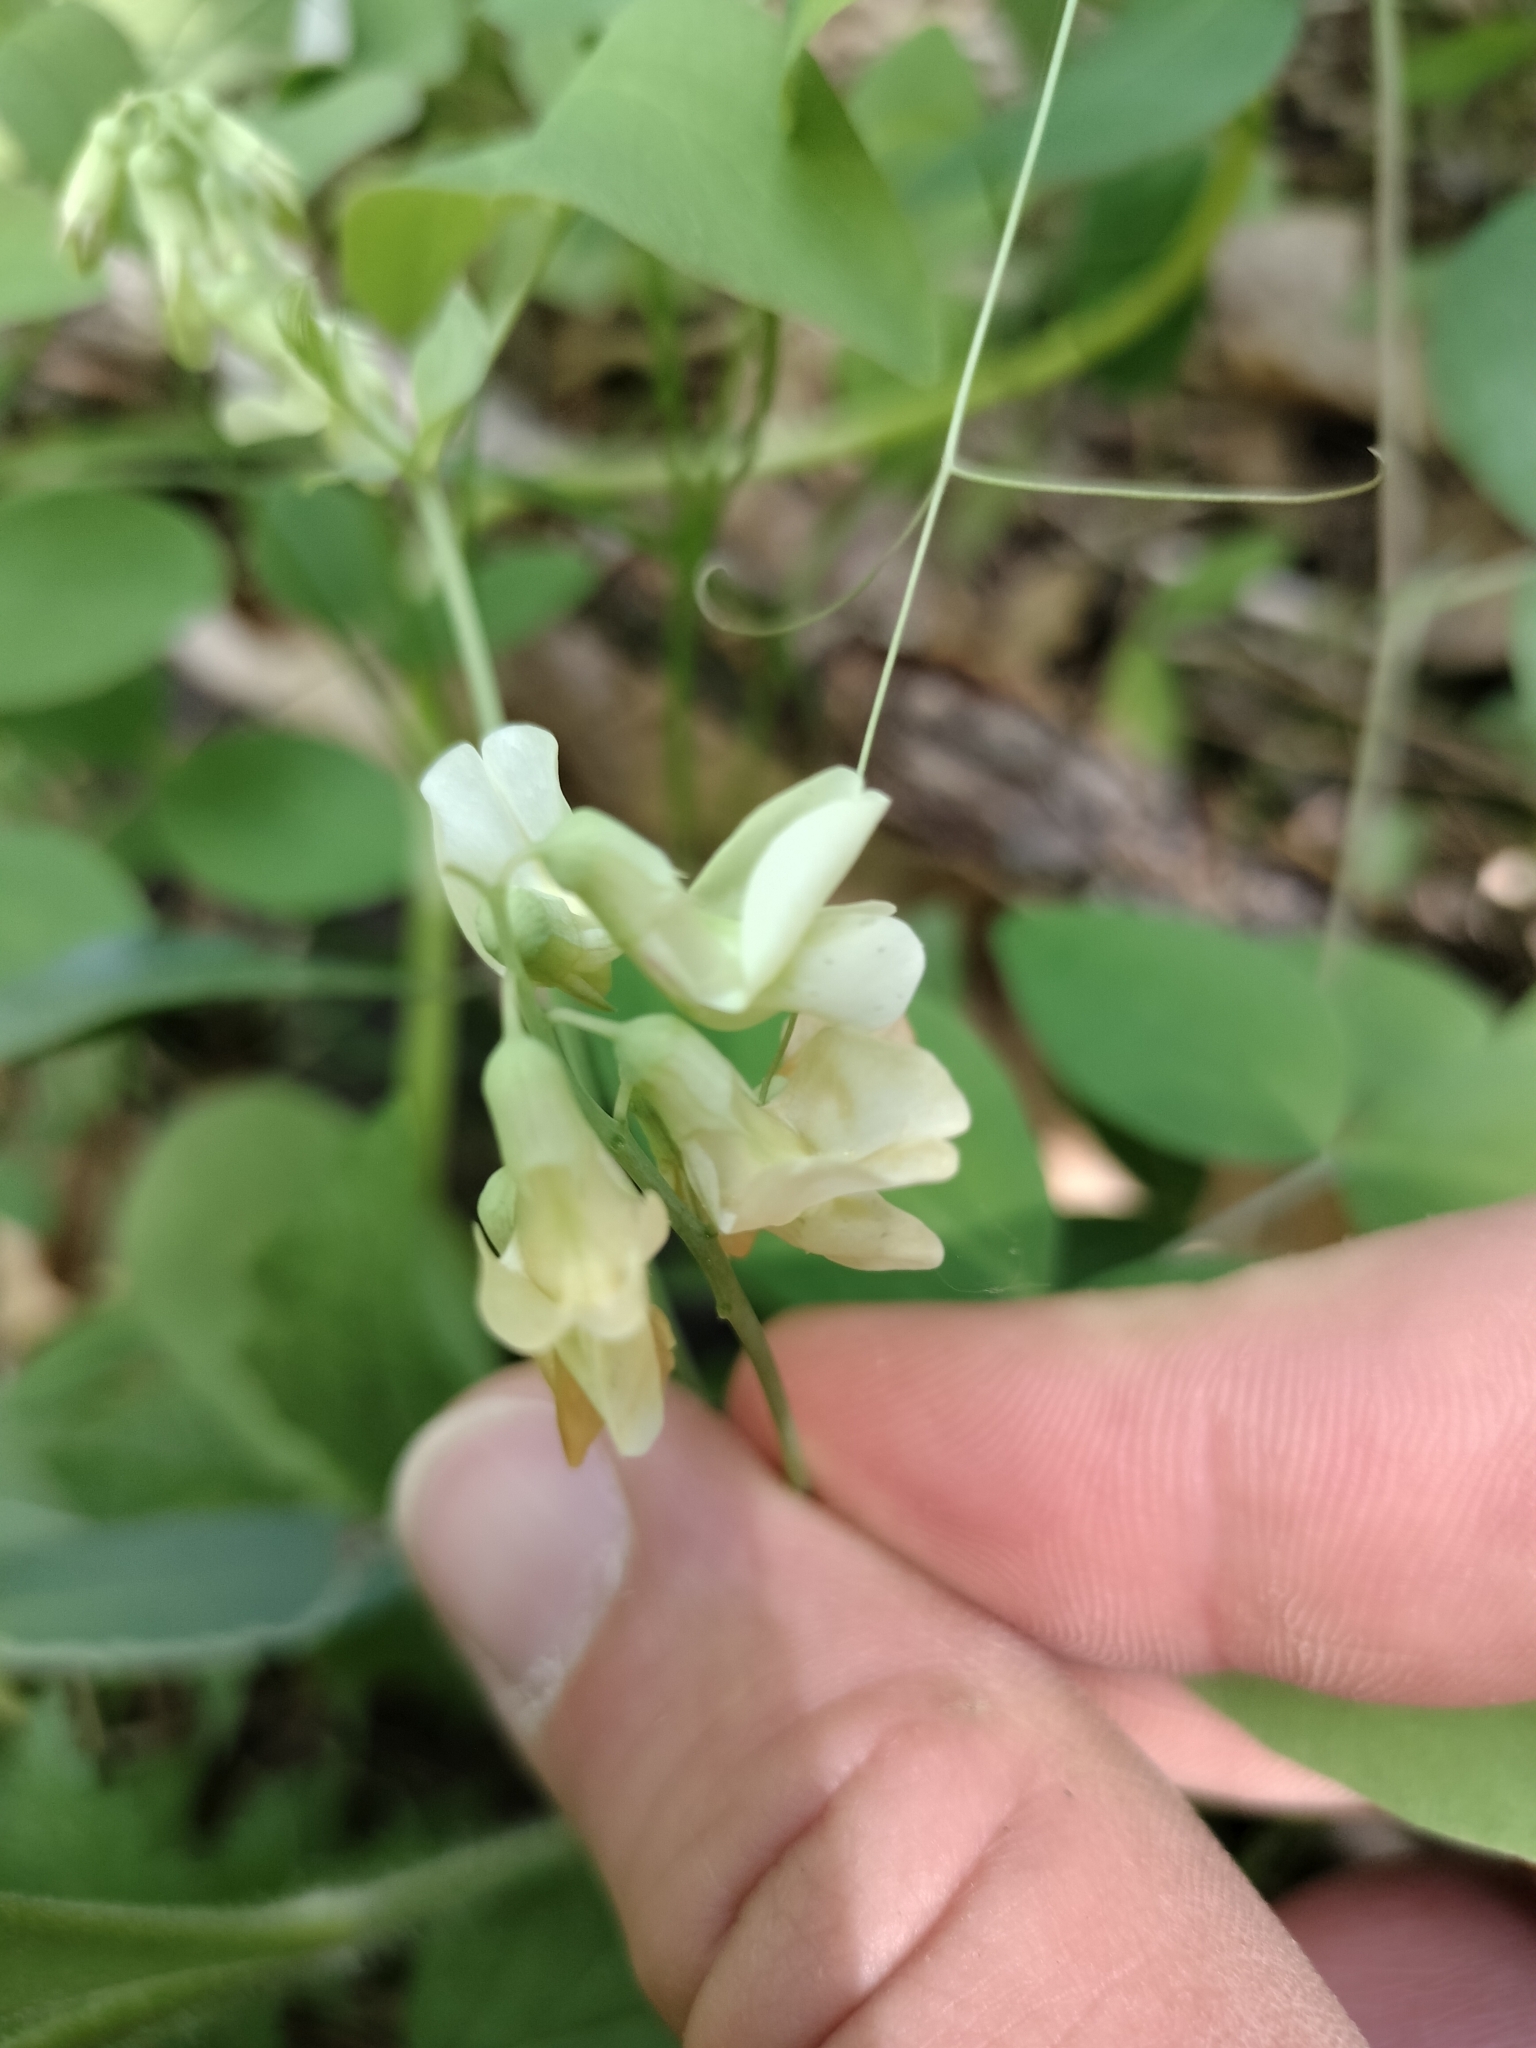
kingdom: Plantae
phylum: Tracheophyta
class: Magnoliopsida
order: Fabales
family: Fabaceae
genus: Lathyrus
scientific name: Lathyrus ochroleucus
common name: Pale vetchling
